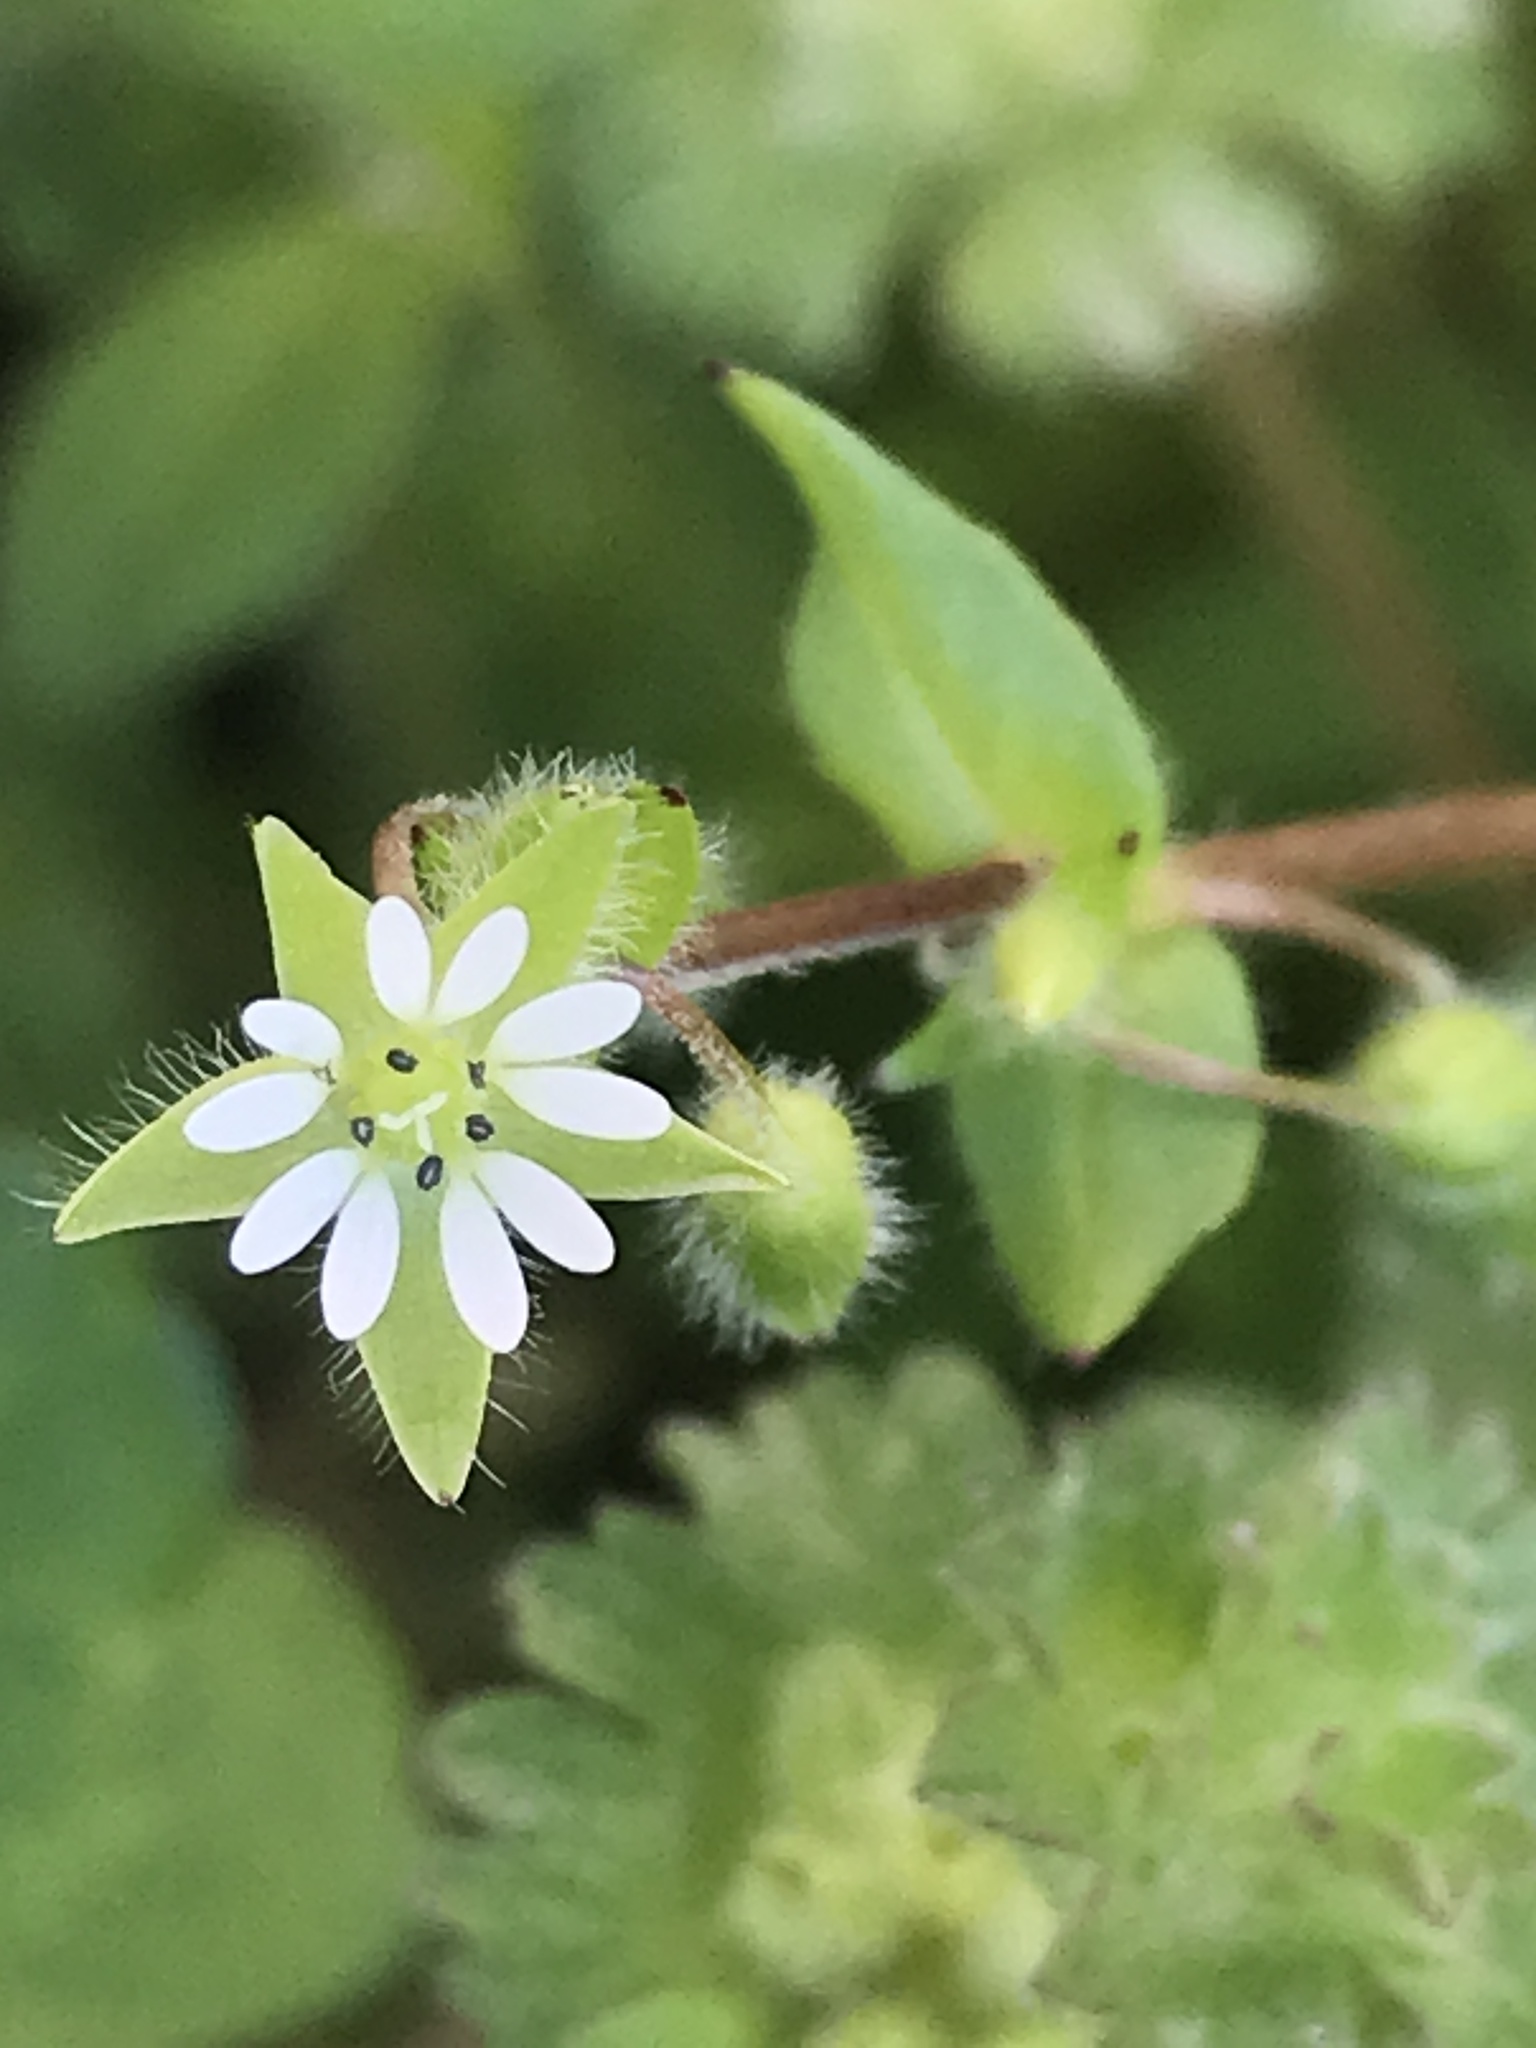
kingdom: Plantae
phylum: Tracheophyta
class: Magnoliopsida
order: Caryophyllales
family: Caryophyllaceae
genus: Stellaria
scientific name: Stellaria media
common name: Common chickweed
